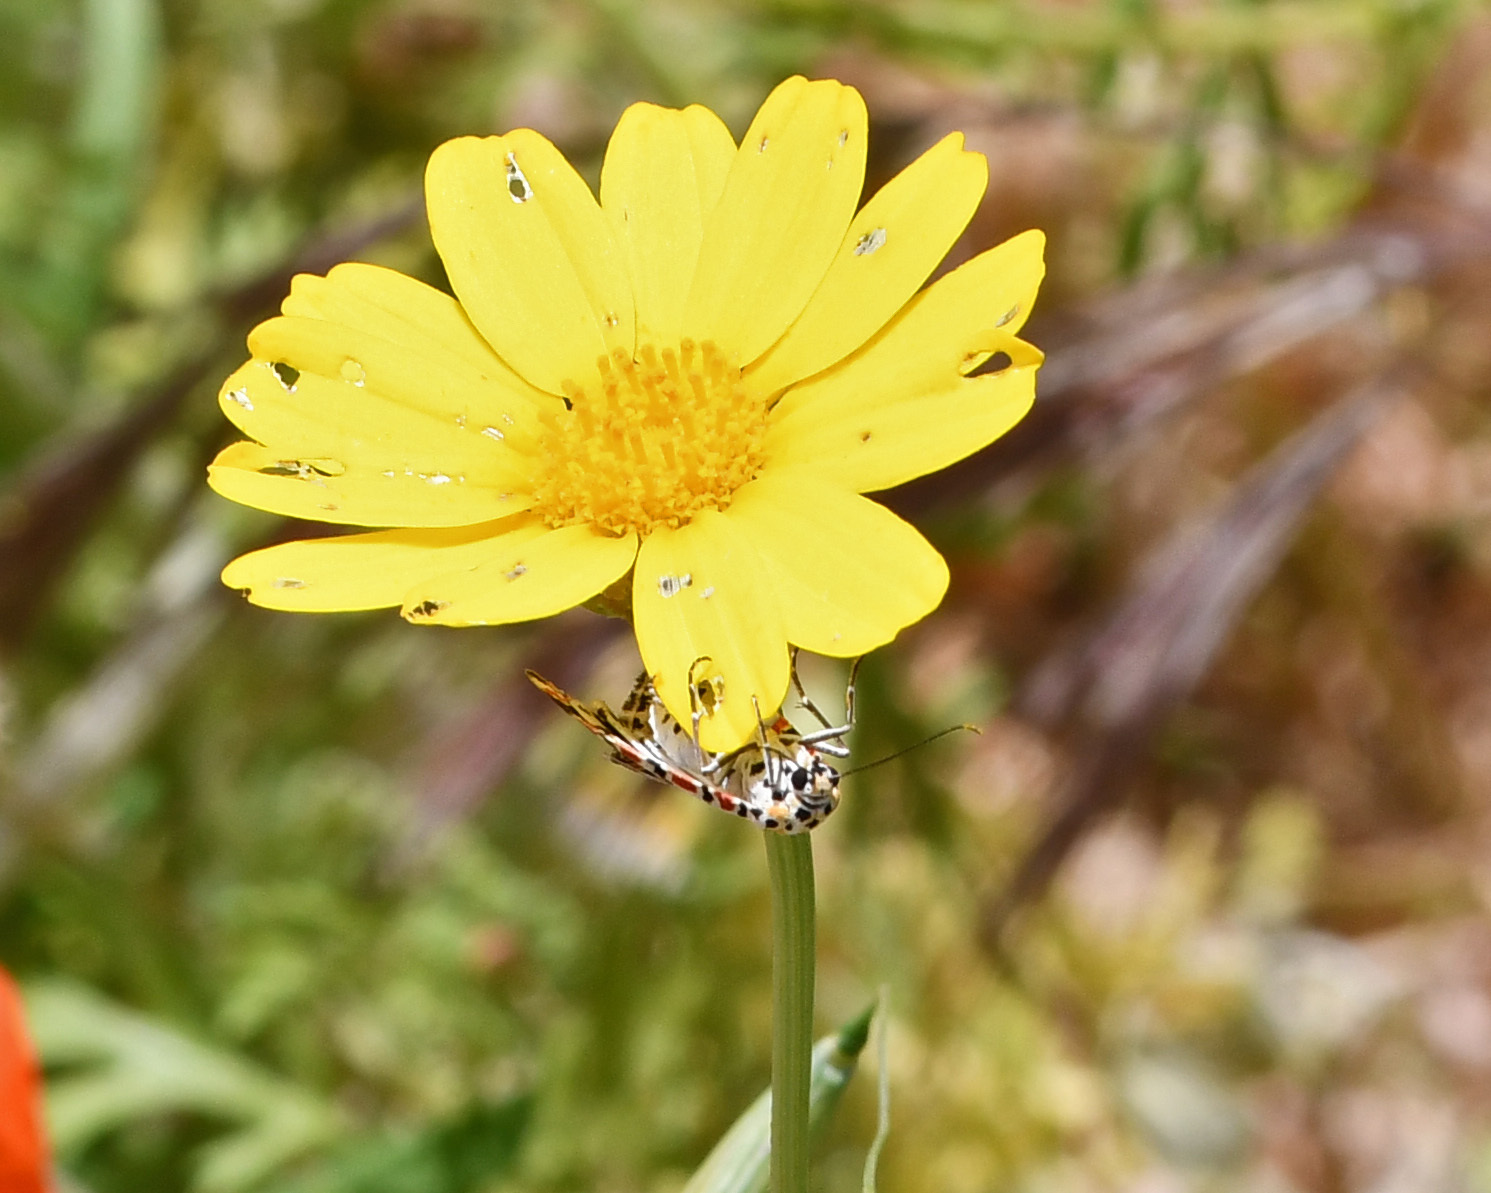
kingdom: Animalia
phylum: Arthropoda
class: Insecta
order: Lepidoptera
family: Erebidae
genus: Utetheisa
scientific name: Utetheisa pulchella
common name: Crimson speckled
